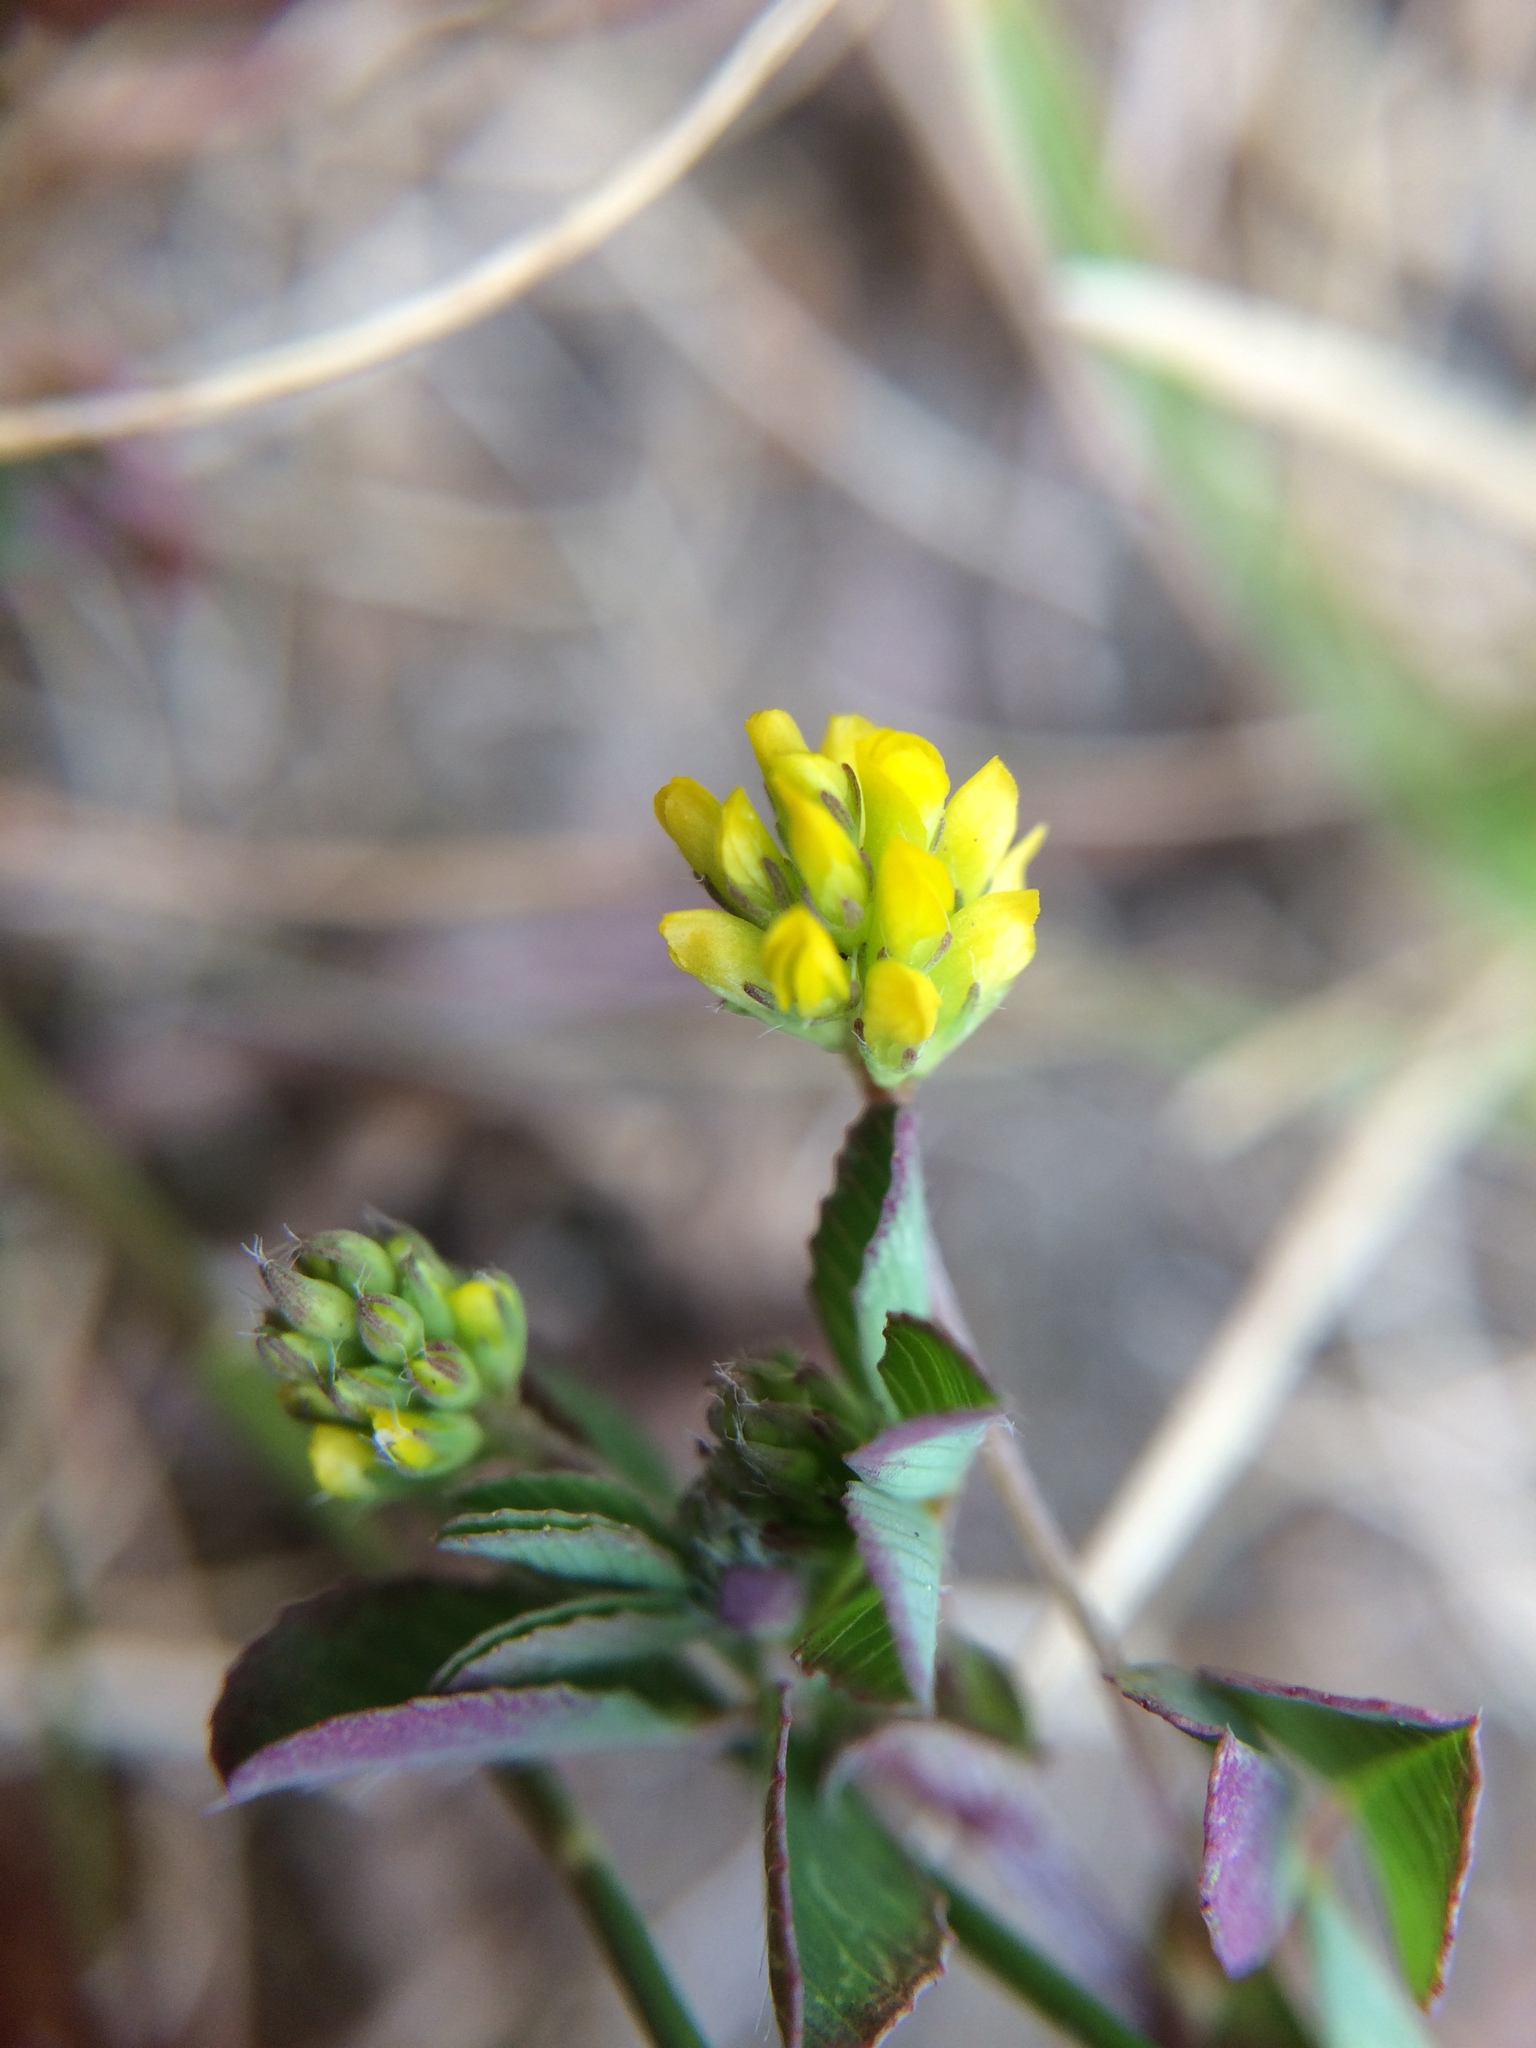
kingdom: Plantae
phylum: Tracheophyta
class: Magnoliopsida
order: Fabales
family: Fabaceae
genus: Trifolium
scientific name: Trifolium dubium
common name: Suckling clover
